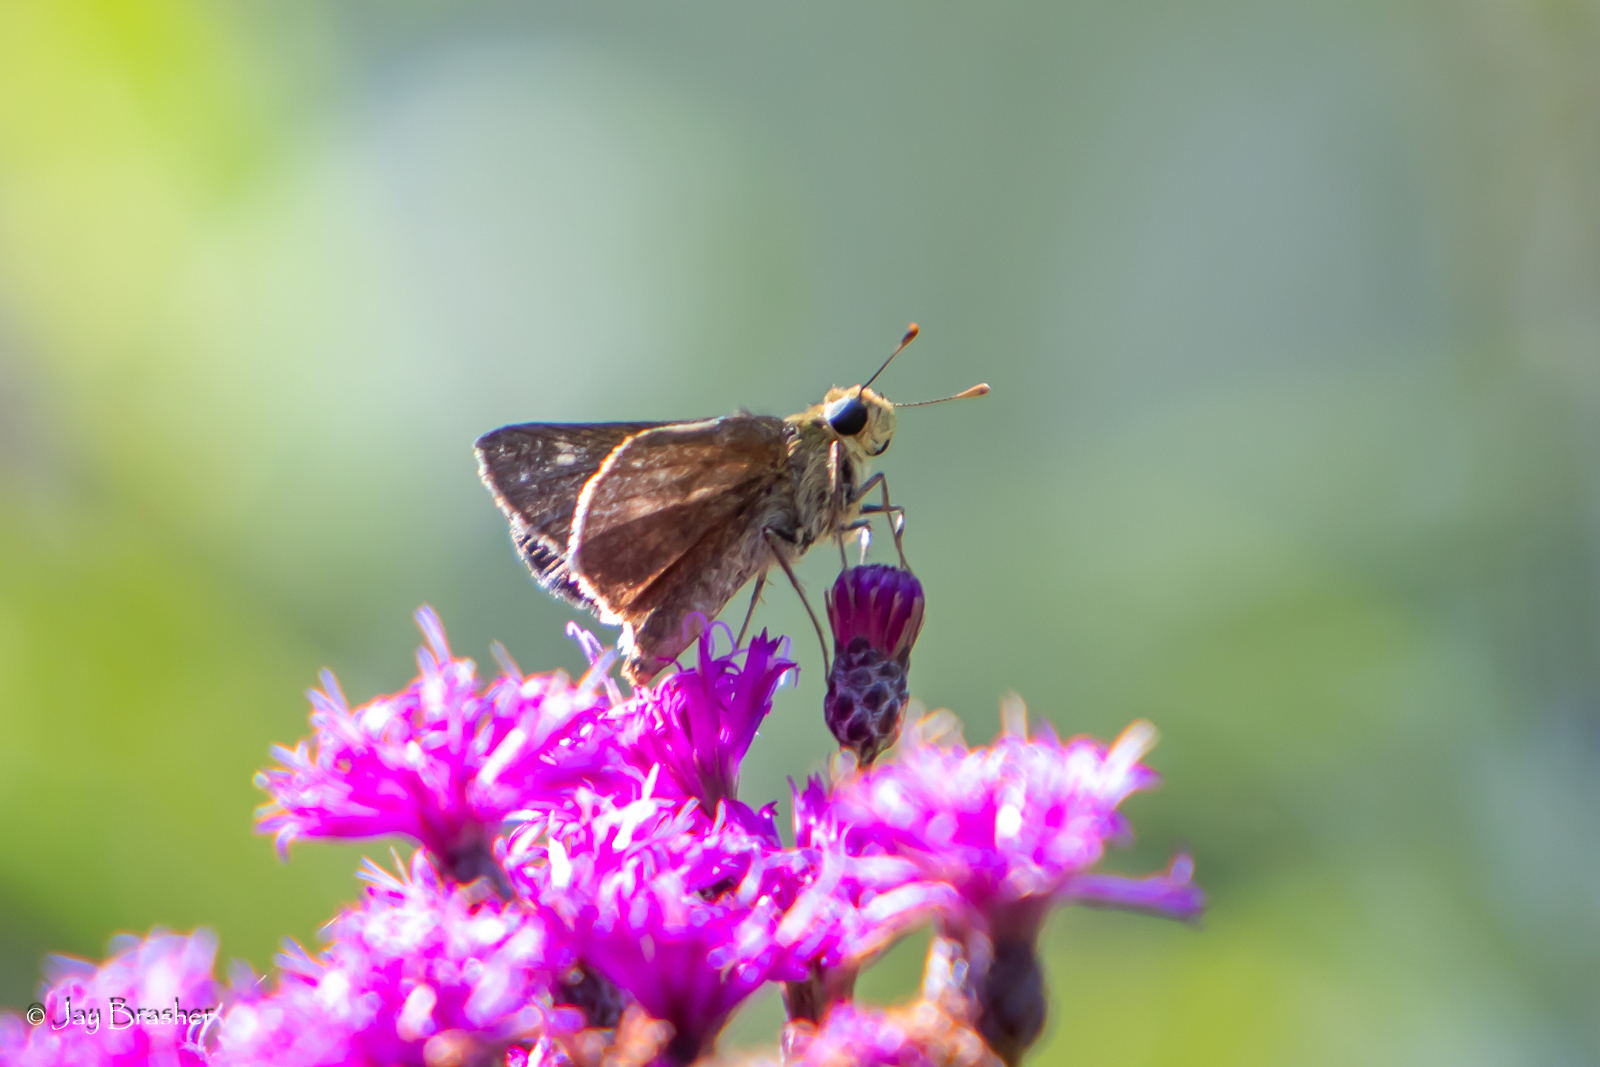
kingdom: Animalia
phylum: Arthropoda
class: Insecta
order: Lepidoptera
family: Hesperiidae
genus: Polites
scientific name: Polites origenes
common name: Crossline skipper
